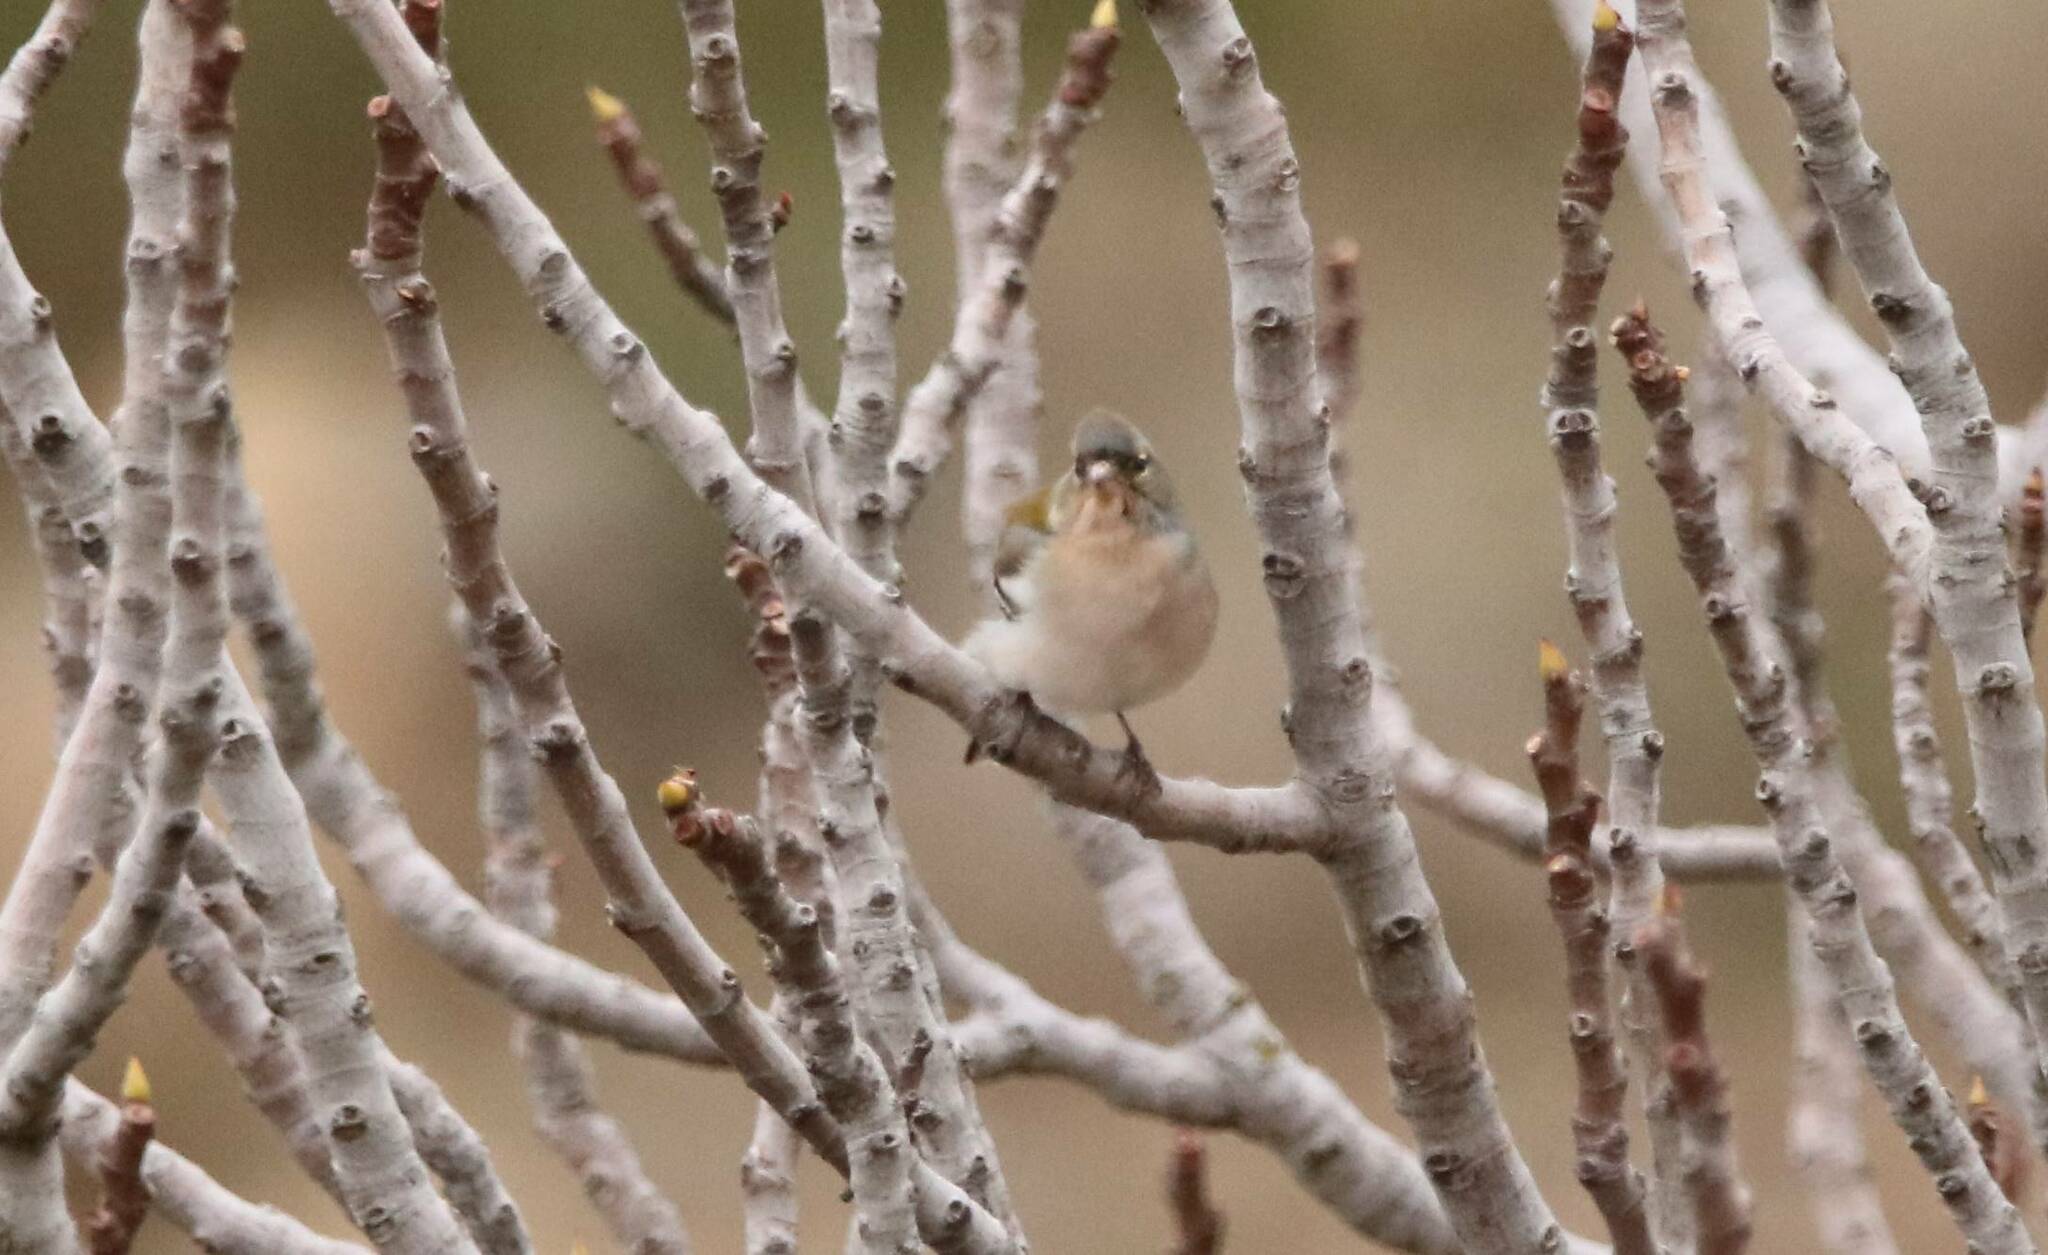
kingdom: Animalia
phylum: Chordata
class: Aves
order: Passeriformes
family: Fringillidae
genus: Fringilla
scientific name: Fringilla spodiogenys
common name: African chaffinch
